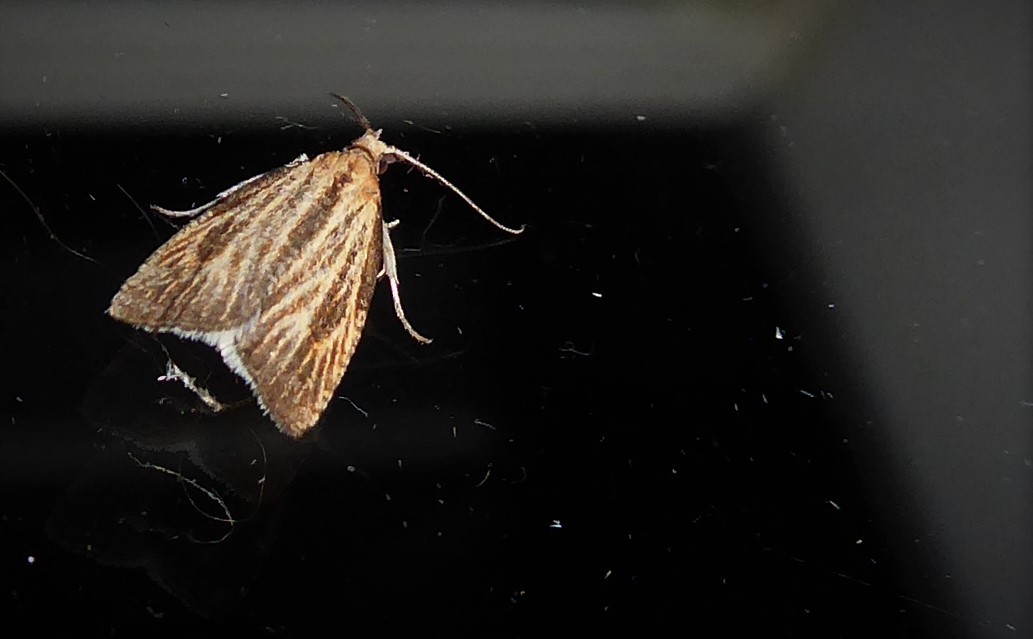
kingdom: Animalia
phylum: Arthropoda
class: Insecta
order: Lepidoptera
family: Tortricidae
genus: Catamacta
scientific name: Catamacta lotinana
